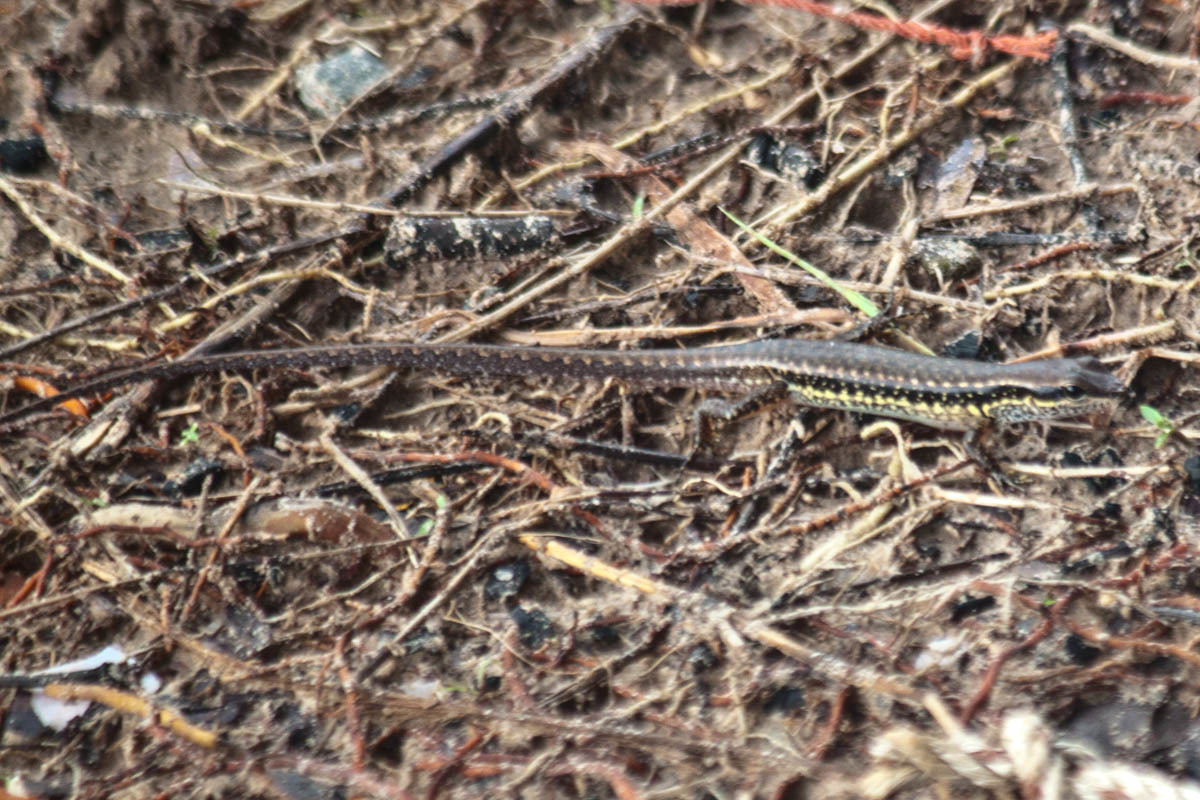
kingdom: Animalia
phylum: Chordata
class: Squamata
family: Scincidae
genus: Sphenomorphus
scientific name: Sphenomorphus maculatus
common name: Maculated forest skink
